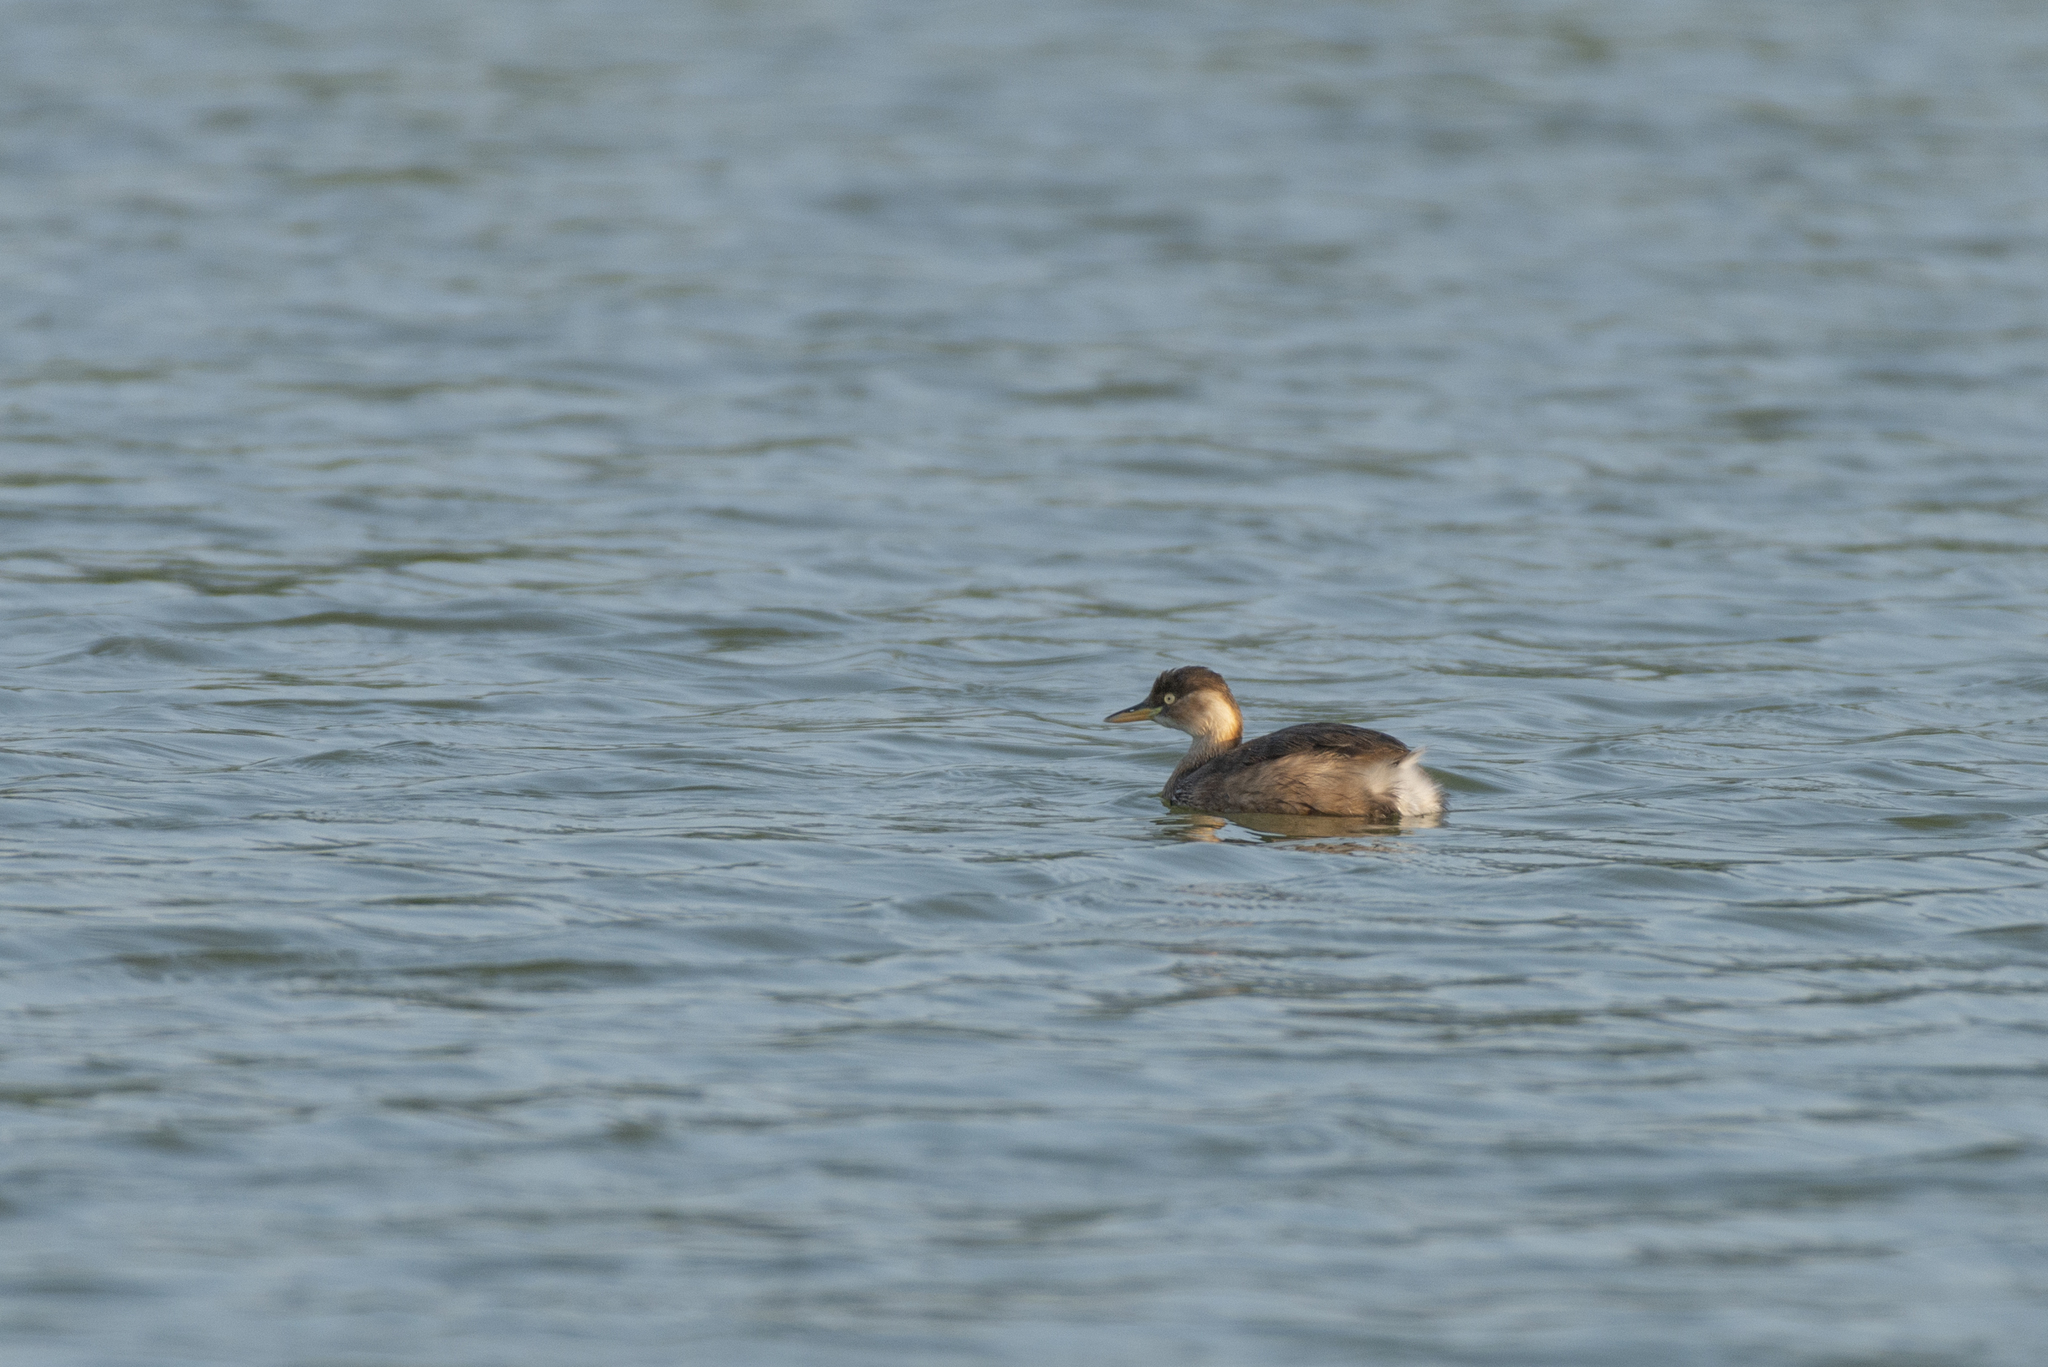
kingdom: Animalia
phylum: Chordata
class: Aves
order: Podicipediformes
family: Podicipedidae
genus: Tachybaptus
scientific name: Tachybaptus ruficollis
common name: Little grebe
